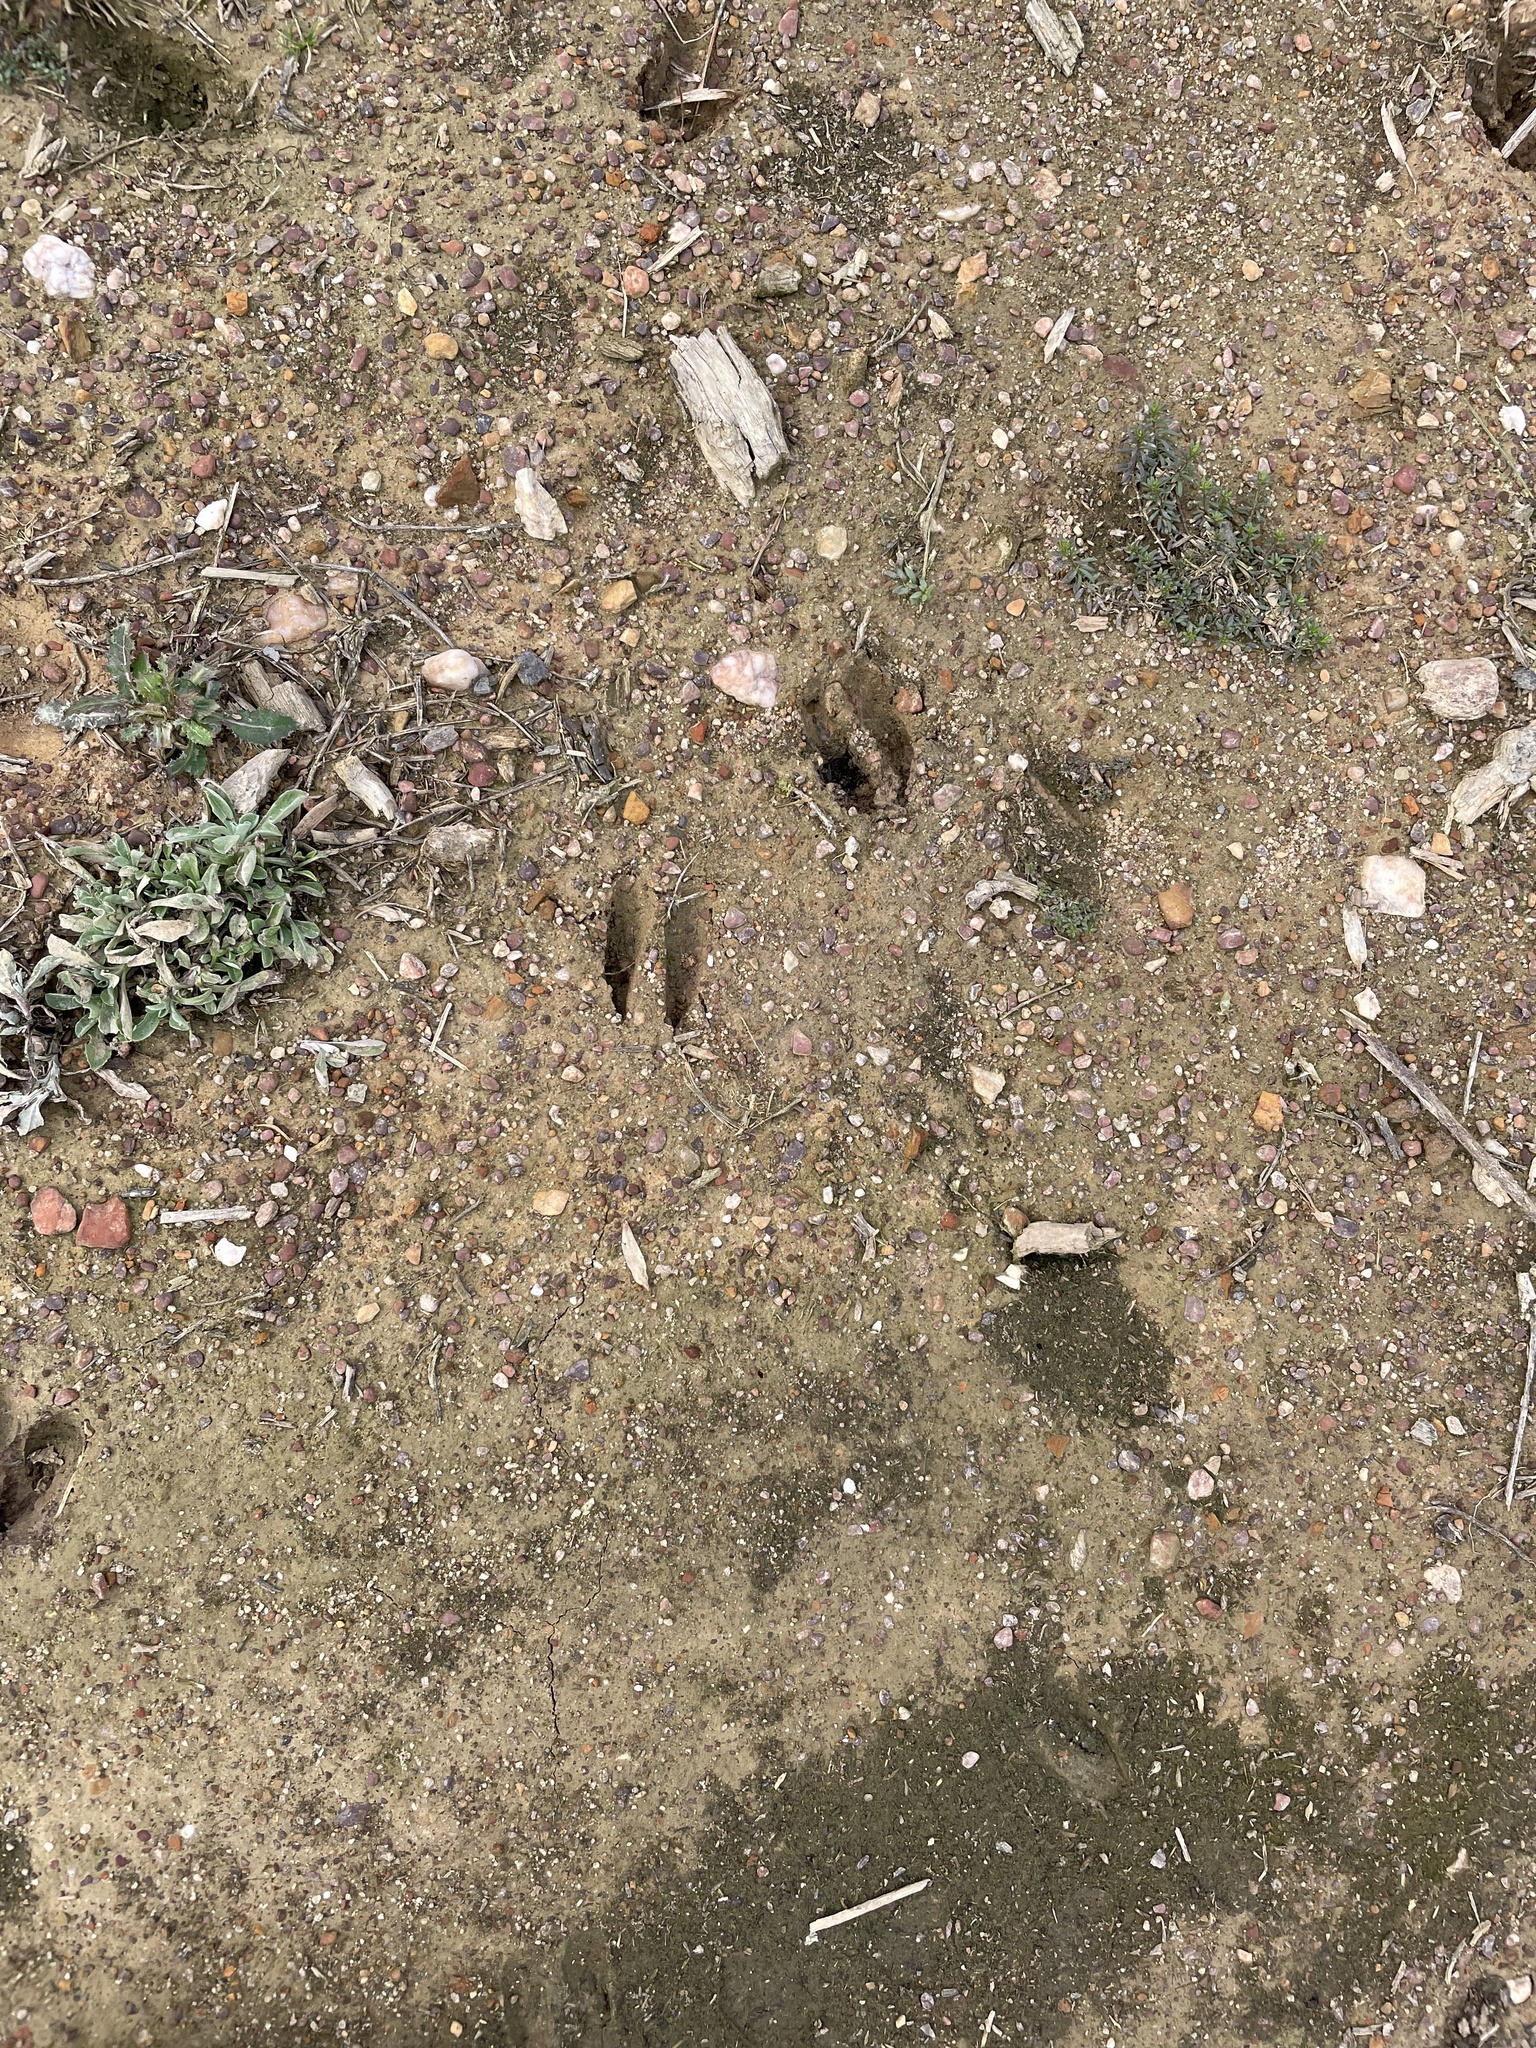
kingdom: Animalia
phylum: Chordata
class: Mammalia
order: Artiodactyla
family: Cervidae
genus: Odocoileus
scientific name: Odocoileus virginianus
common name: White-tailed deer
